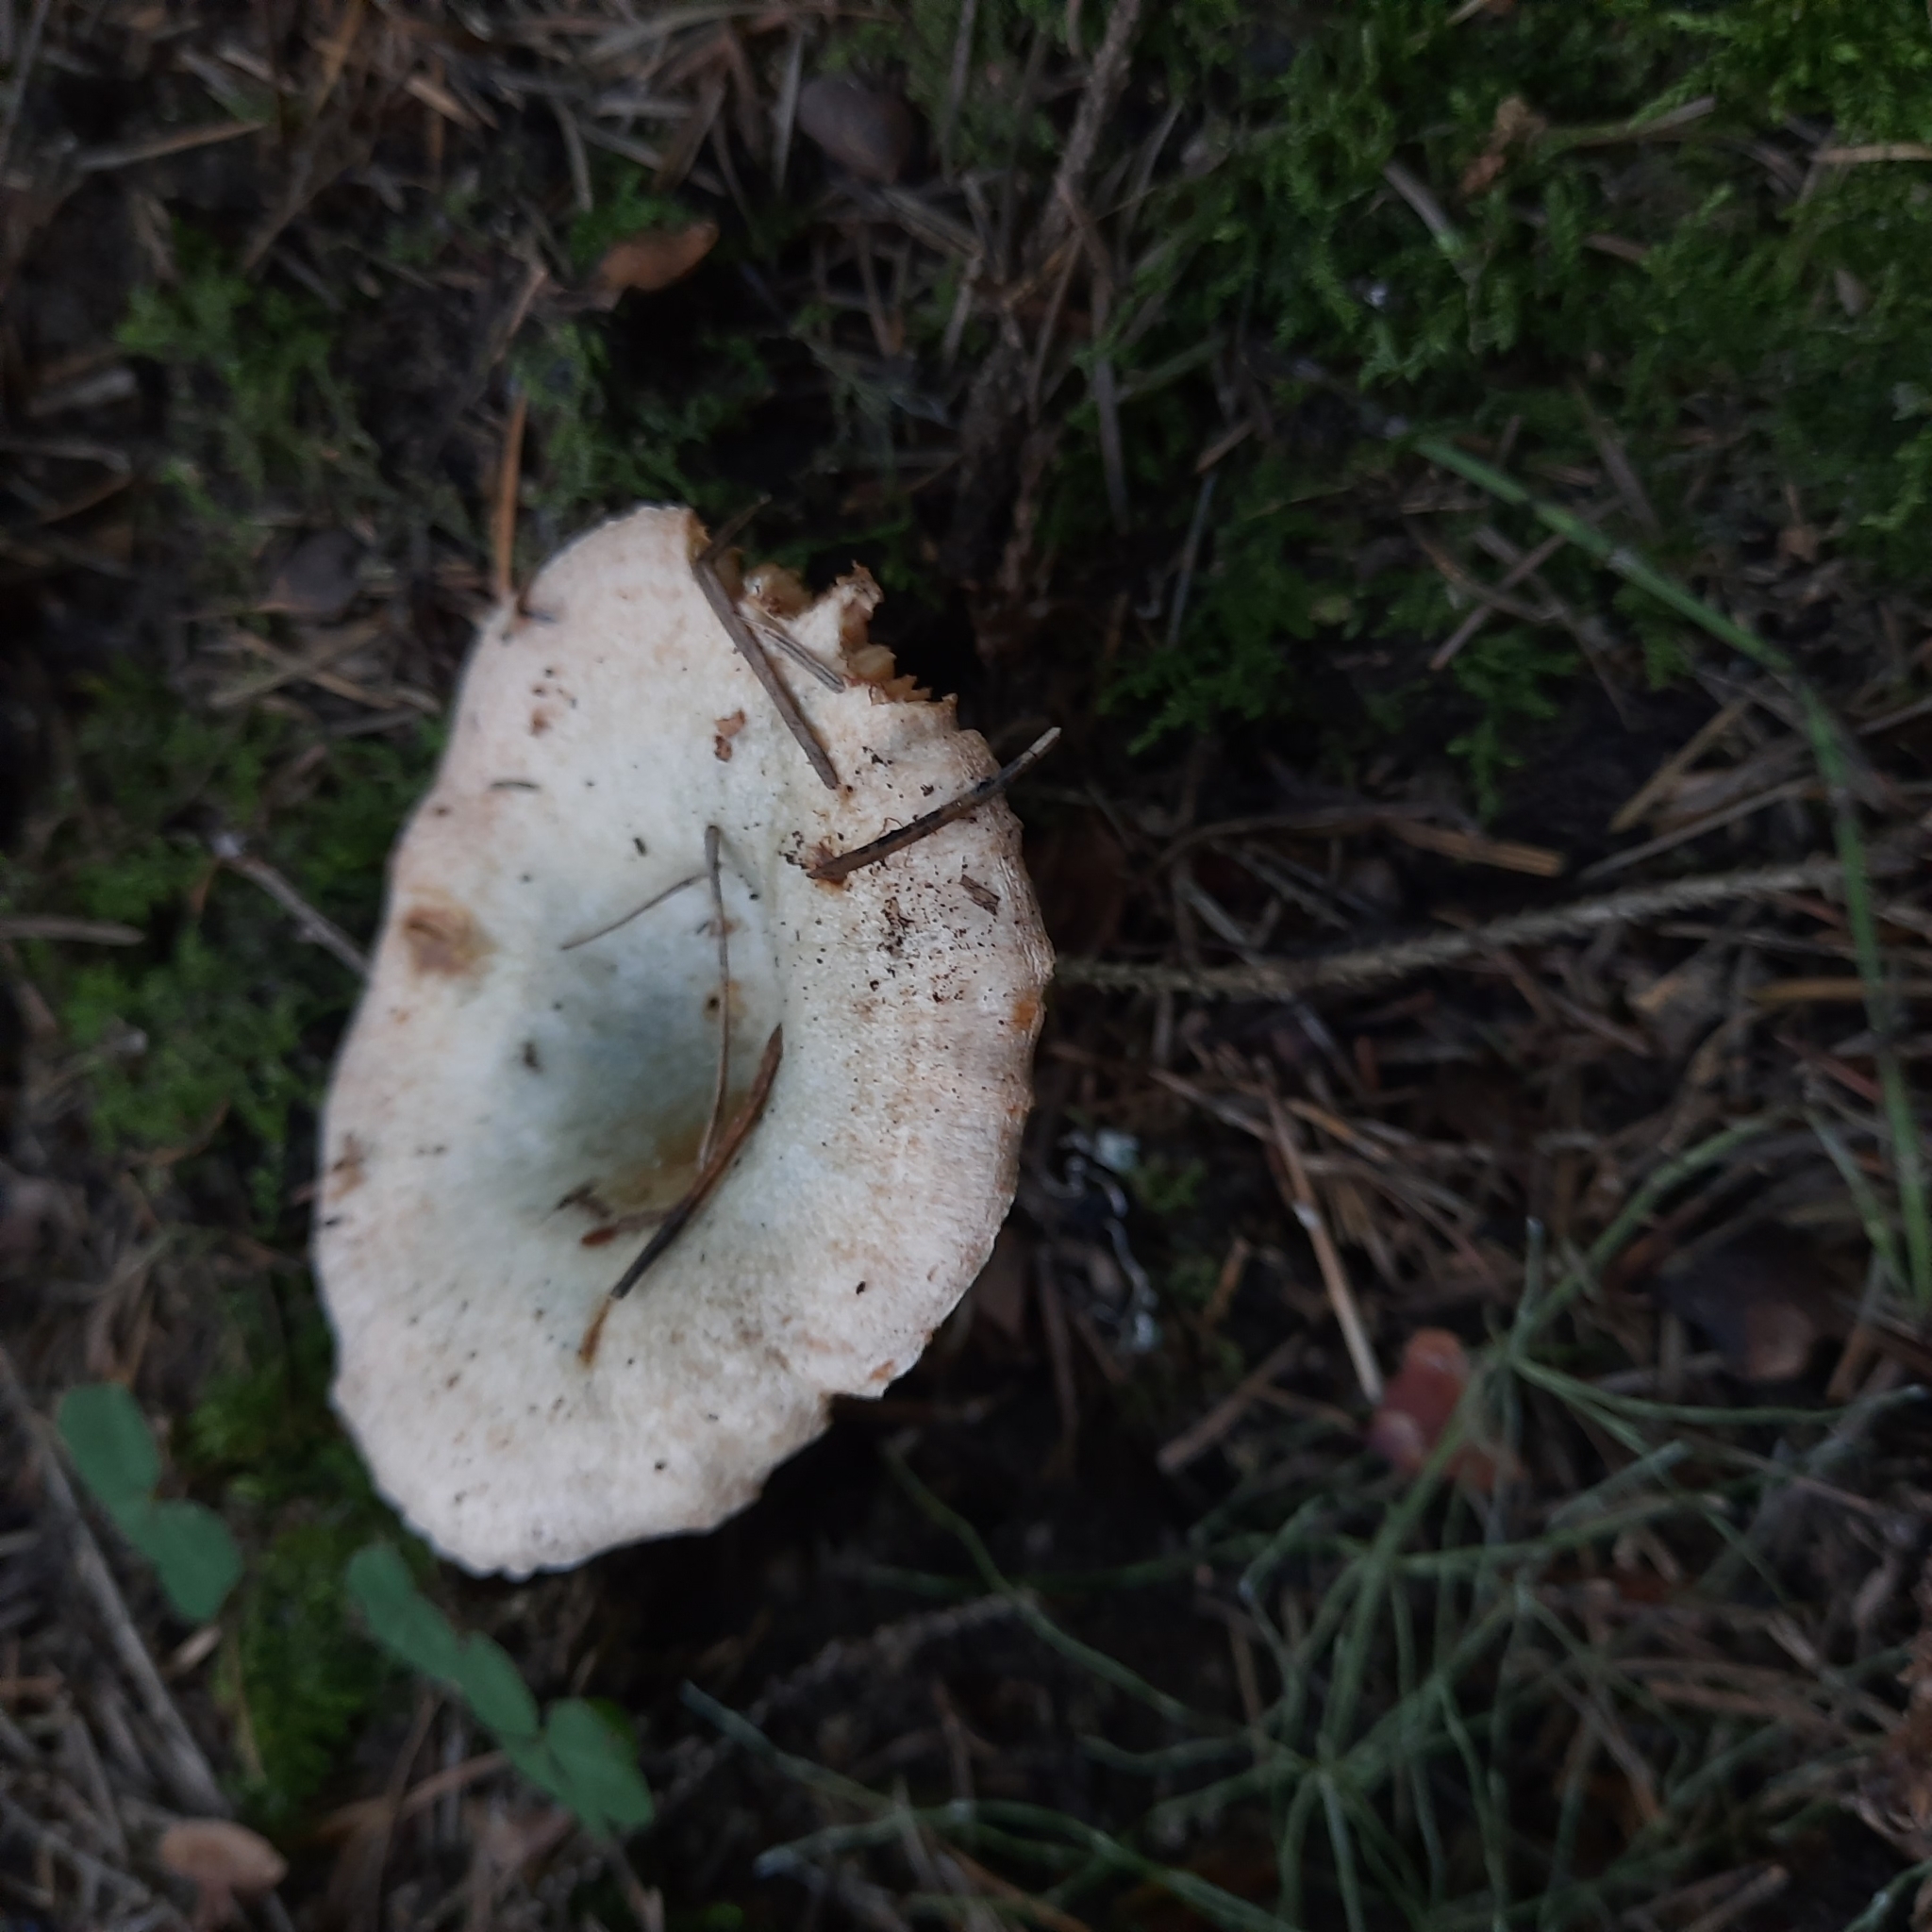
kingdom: Fungi
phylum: Basidiomycota
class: Agaricomycetes
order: Russulales
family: Russulaceae
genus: Lactarius
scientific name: Lactarius deterrimus
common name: False saffron milkcap
